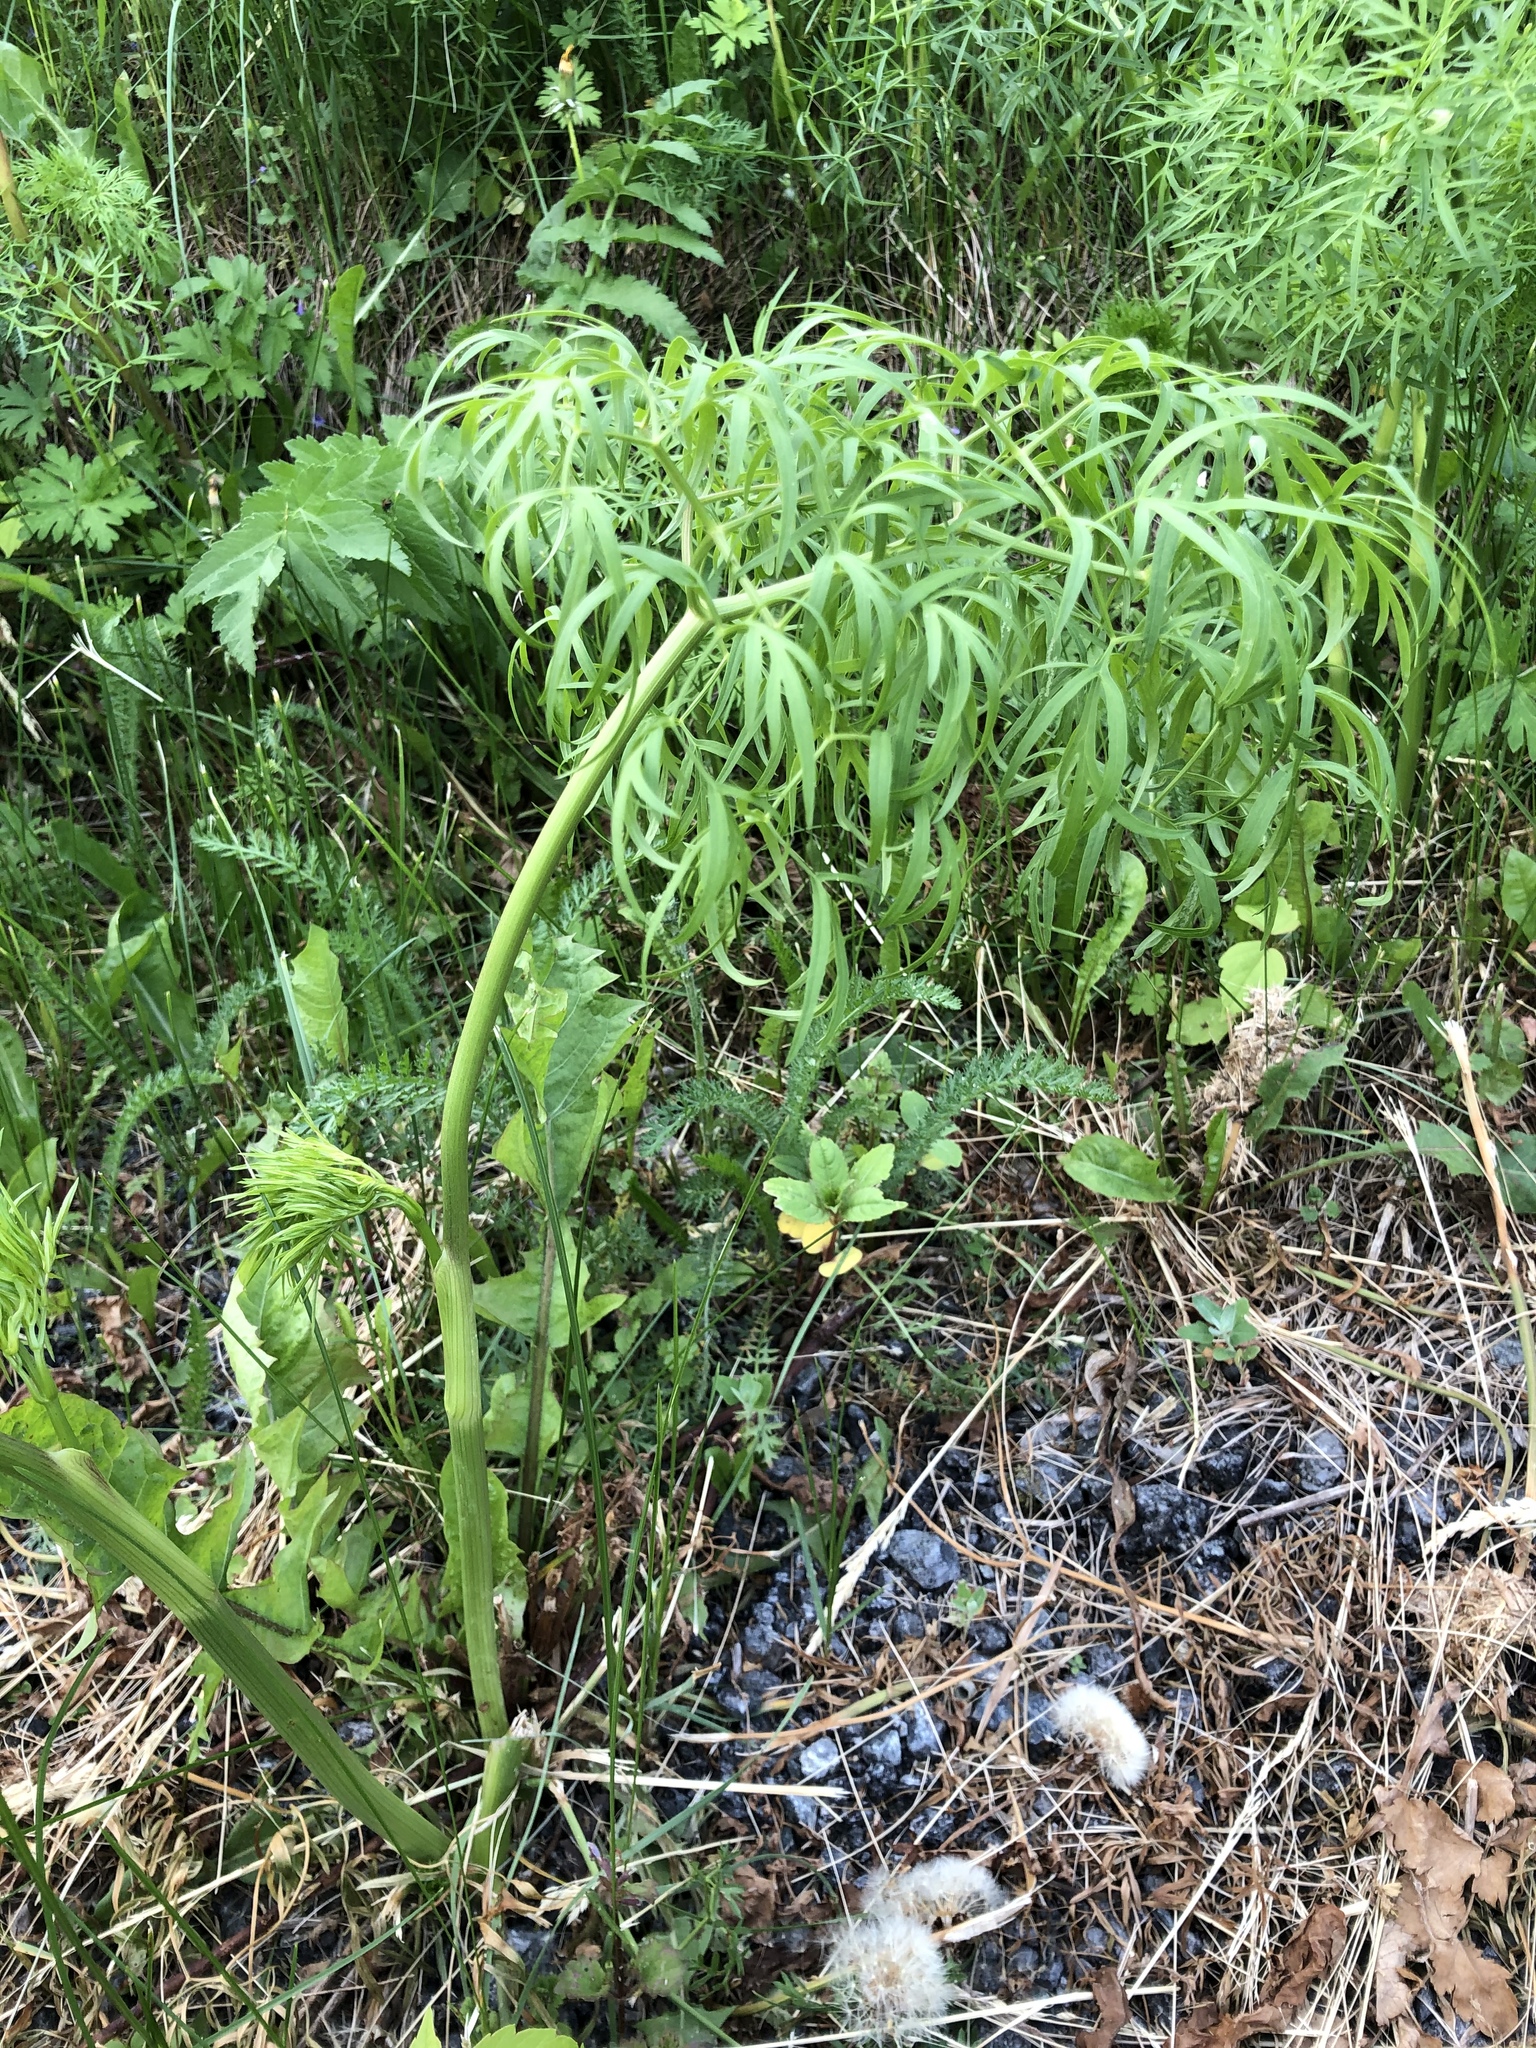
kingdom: Plantae
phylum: Tracheophyta
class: Magnoliopsida
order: Apiales
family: Apiaceae
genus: Cenolophium
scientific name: Cenolophium fischeri
